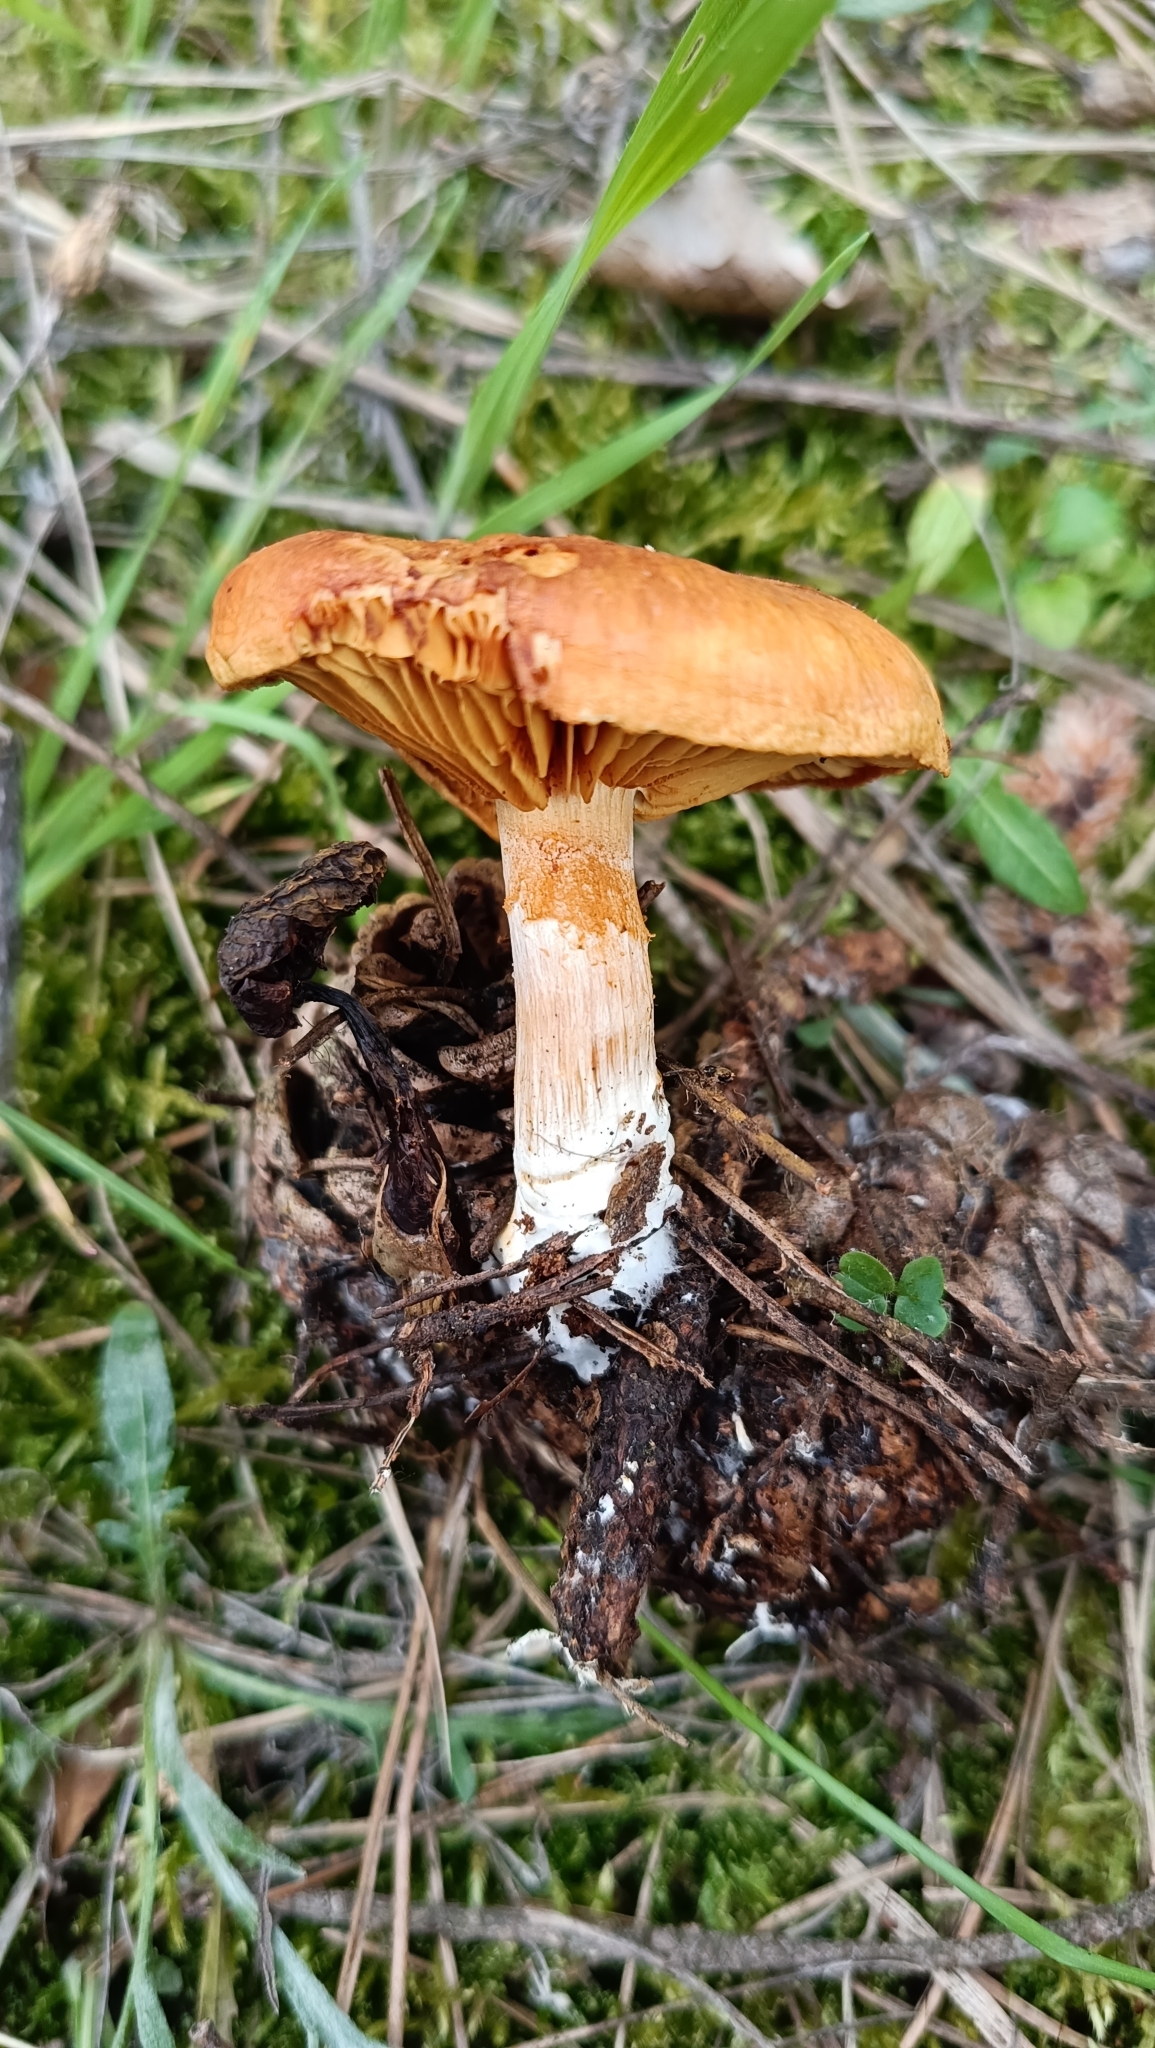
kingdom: Fungi
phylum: Basidiomycota
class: Agaricomycetes
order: Agaricales
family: Hymenogastraceae
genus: Gymnopilus
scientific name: Gymnopilus penetrans
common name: Common rustgill
